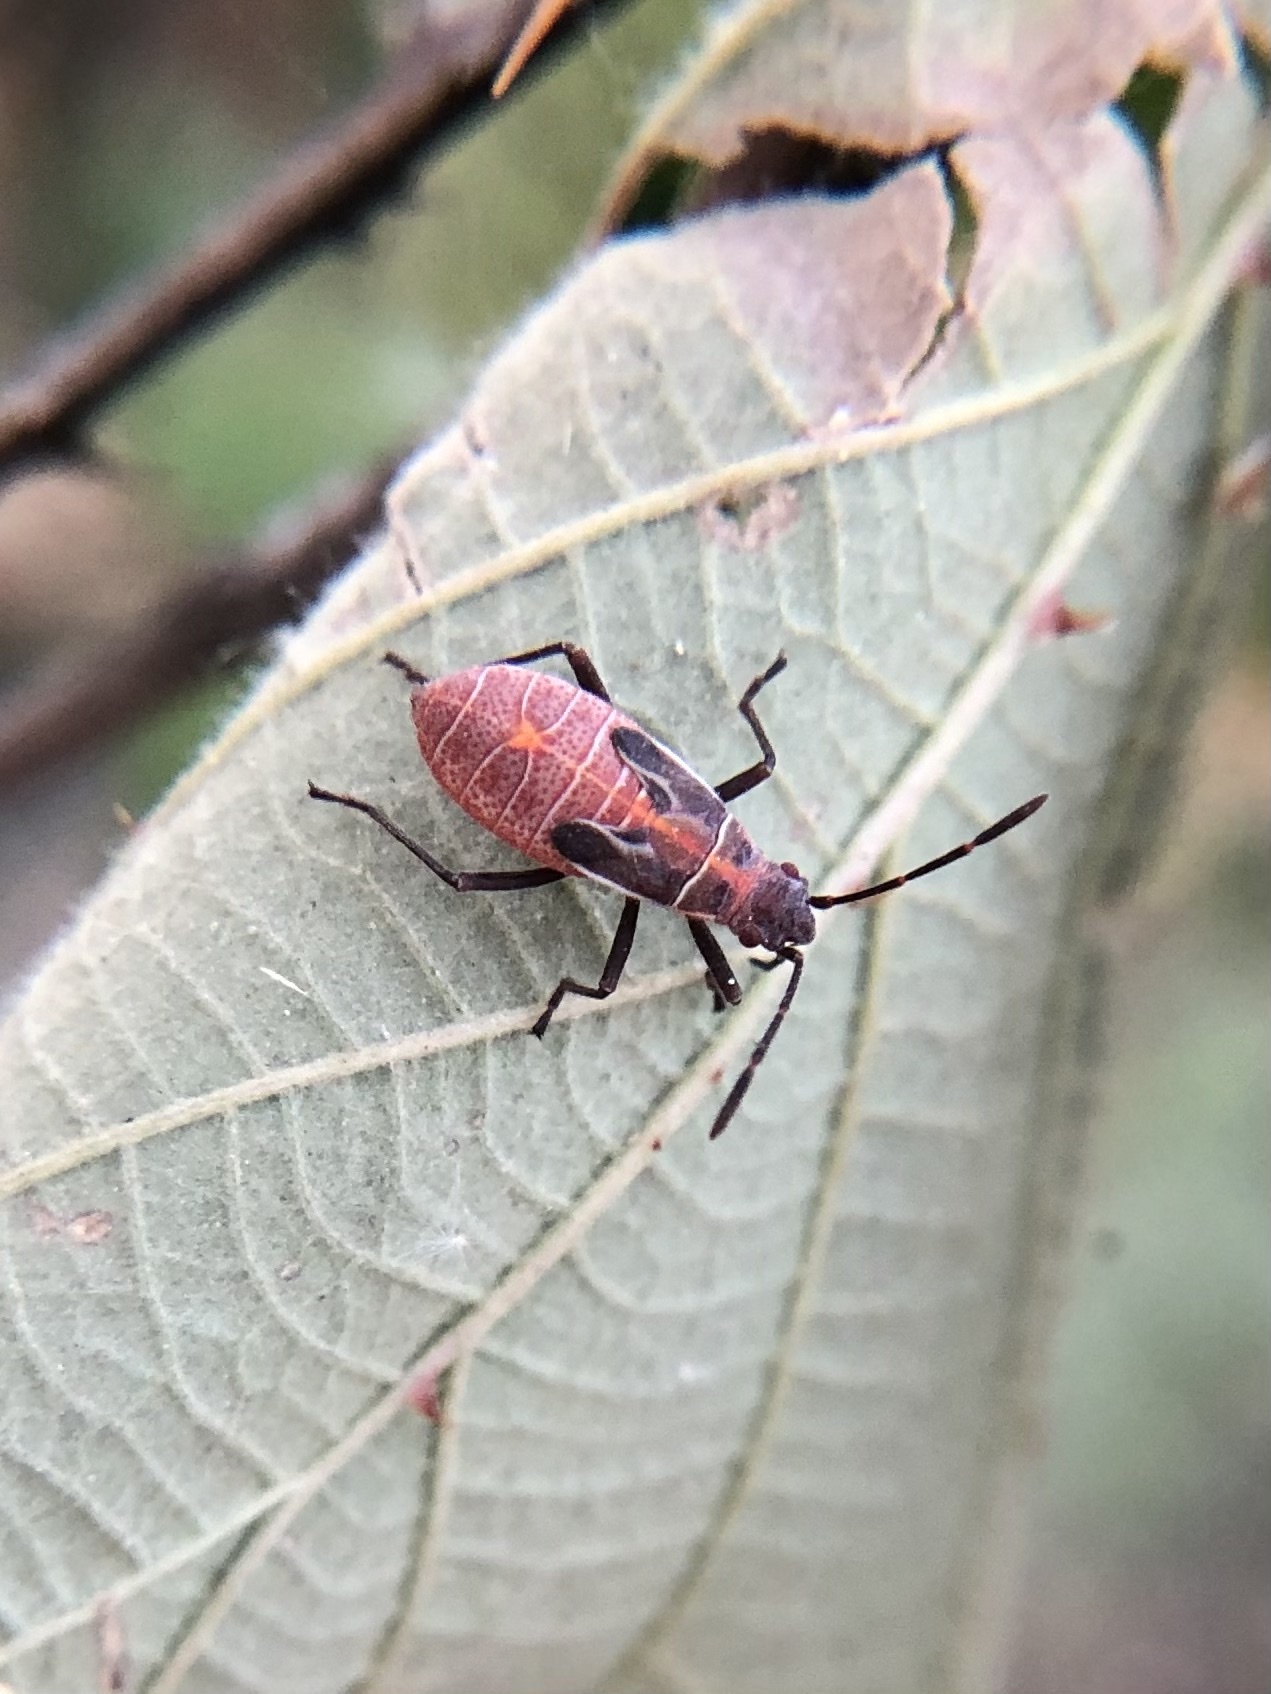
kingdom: Animalia
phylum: Arthropoda
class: Insecta
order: Hemiptera
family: Rhopalidae
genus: Boisea
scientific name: Boisea rubrolineata
